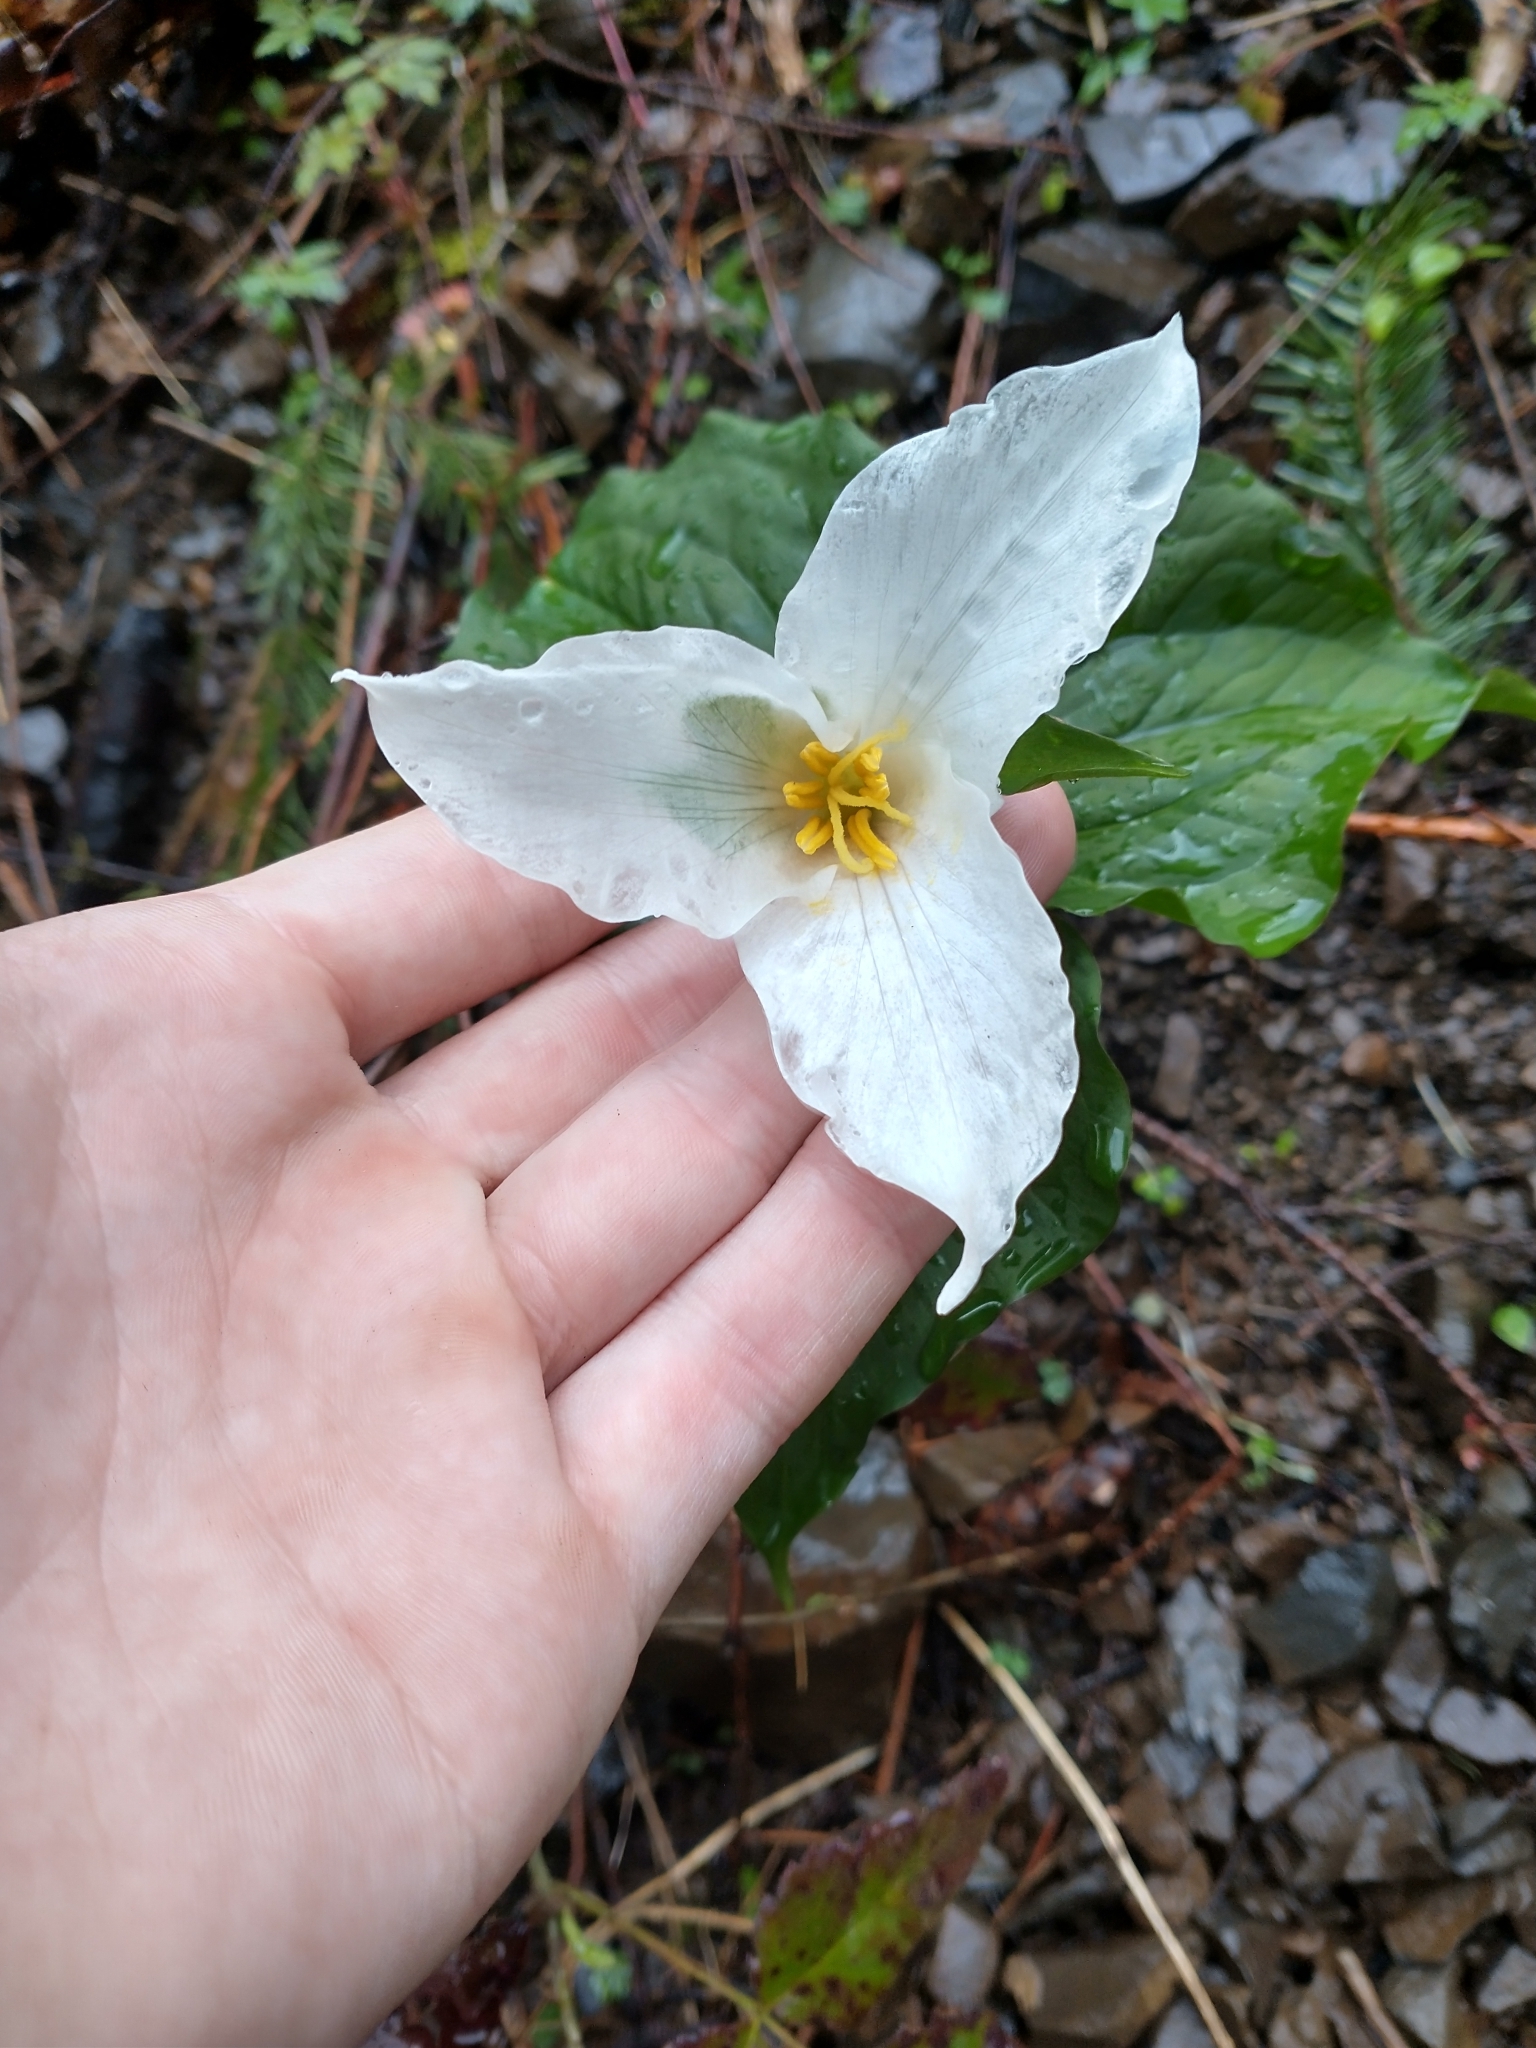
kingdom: Plantae
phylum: Tracheophyta
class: Liliopsida
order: Liliales
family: Melanthiaceae
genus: Trillium
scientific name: Trillium ovatum
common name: Pacific trillium
